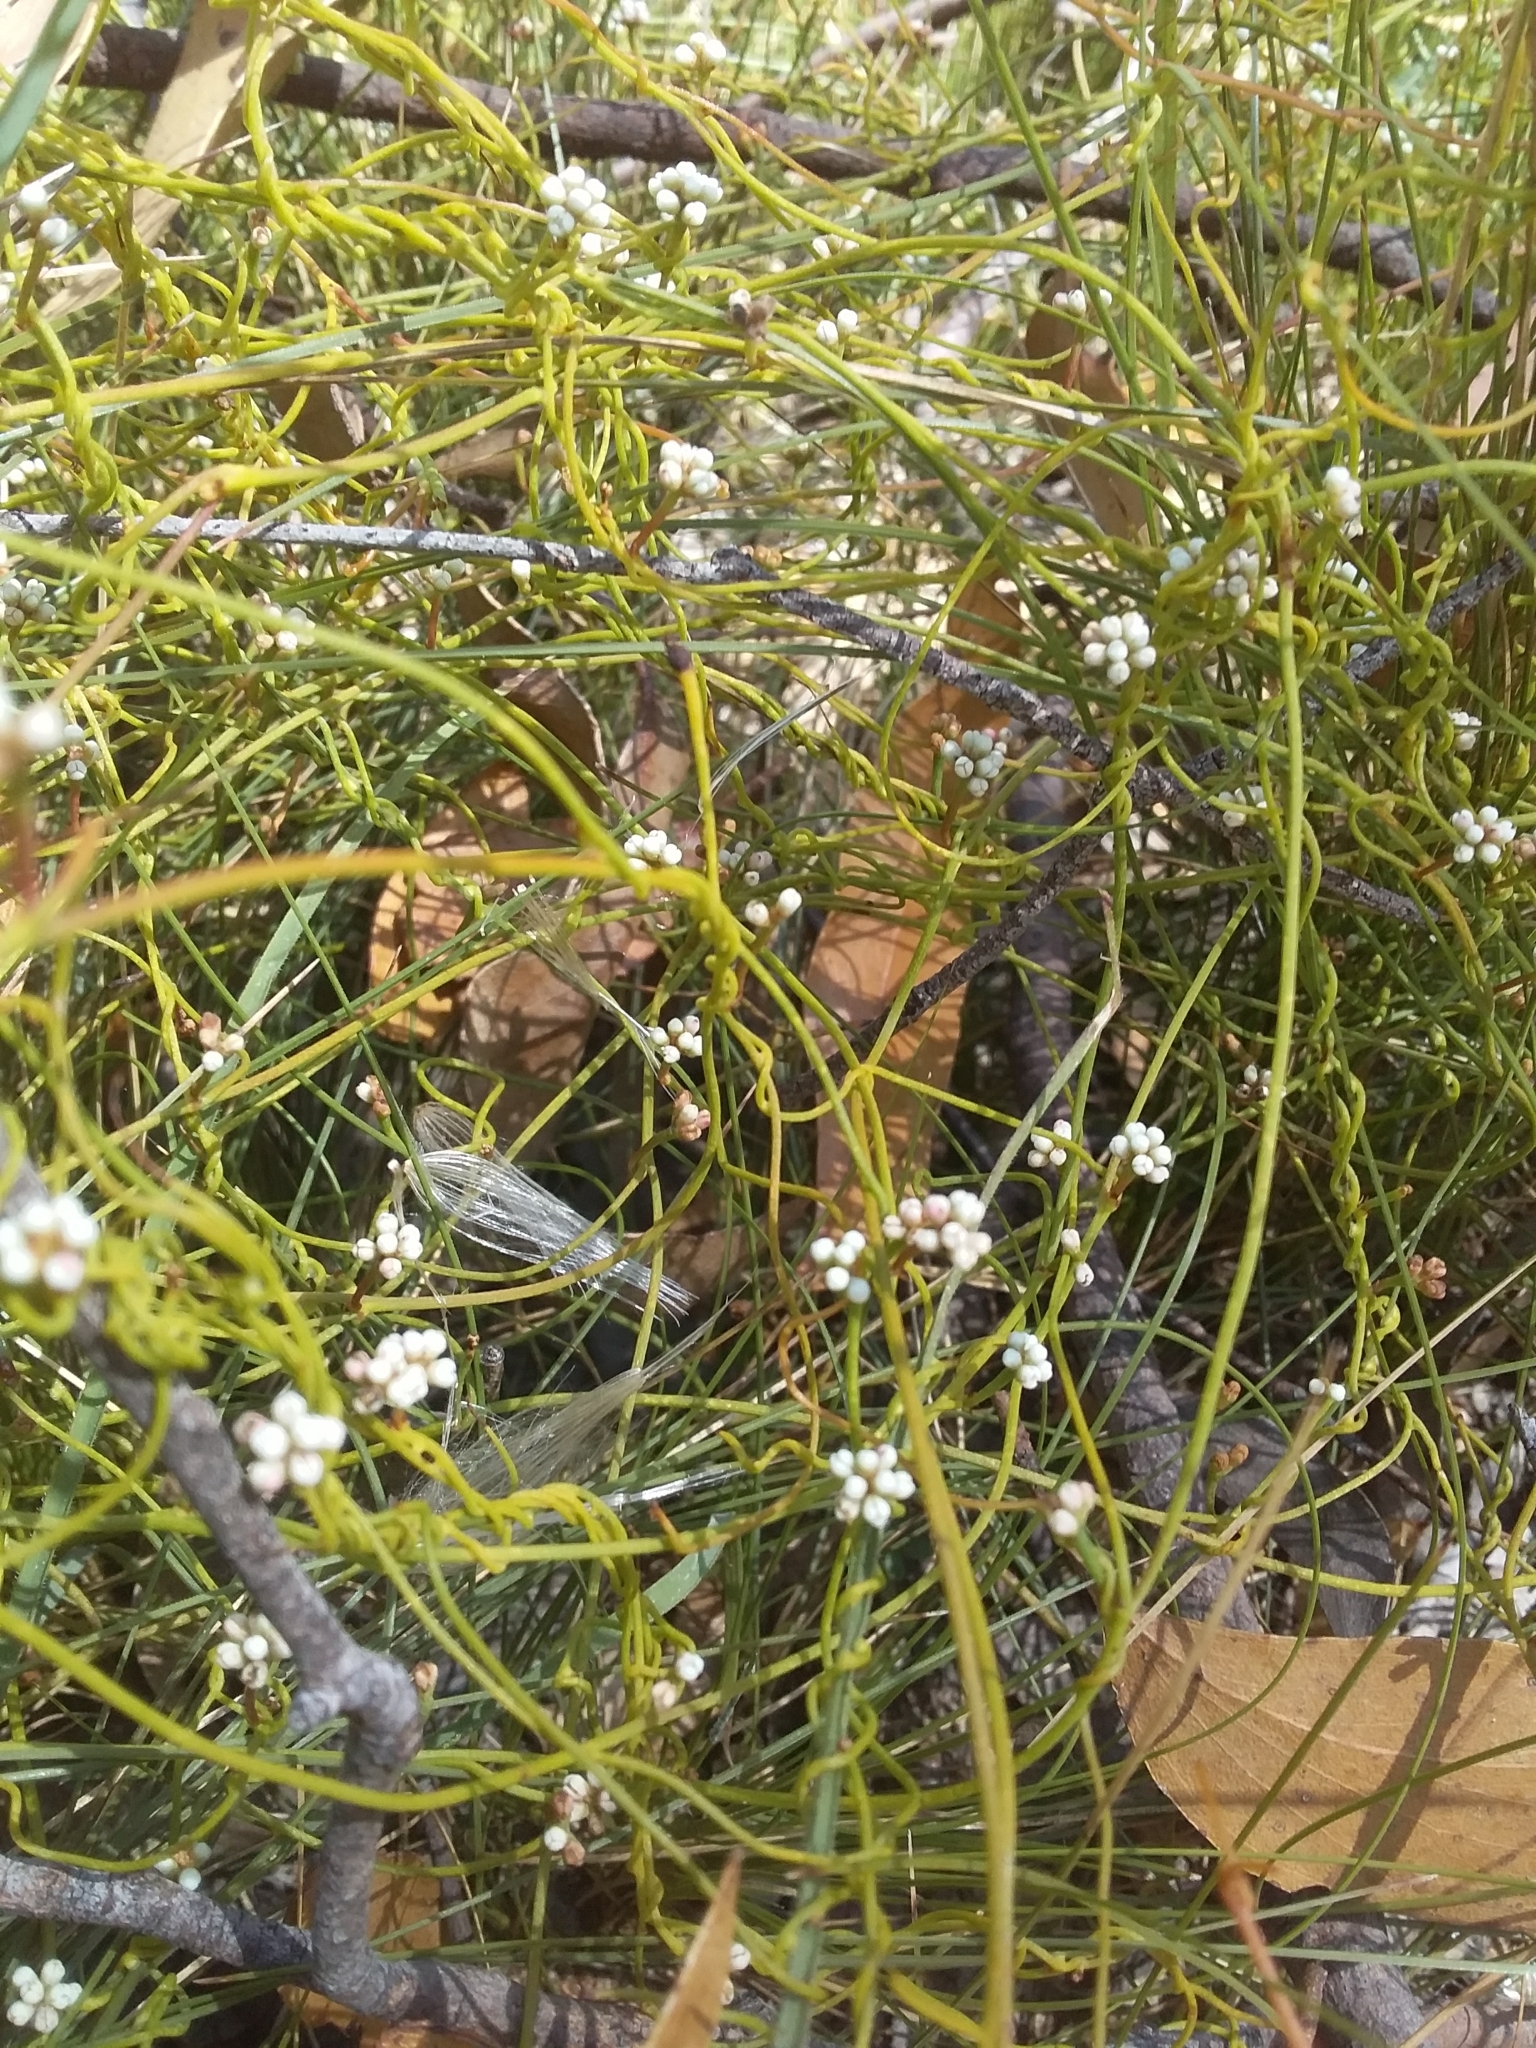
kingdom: Plantae
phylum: Tracheophyta
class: Magnoliopsida
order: Laurales
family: Lauraceae
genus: Cassytha
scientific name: Cassytha glabella
